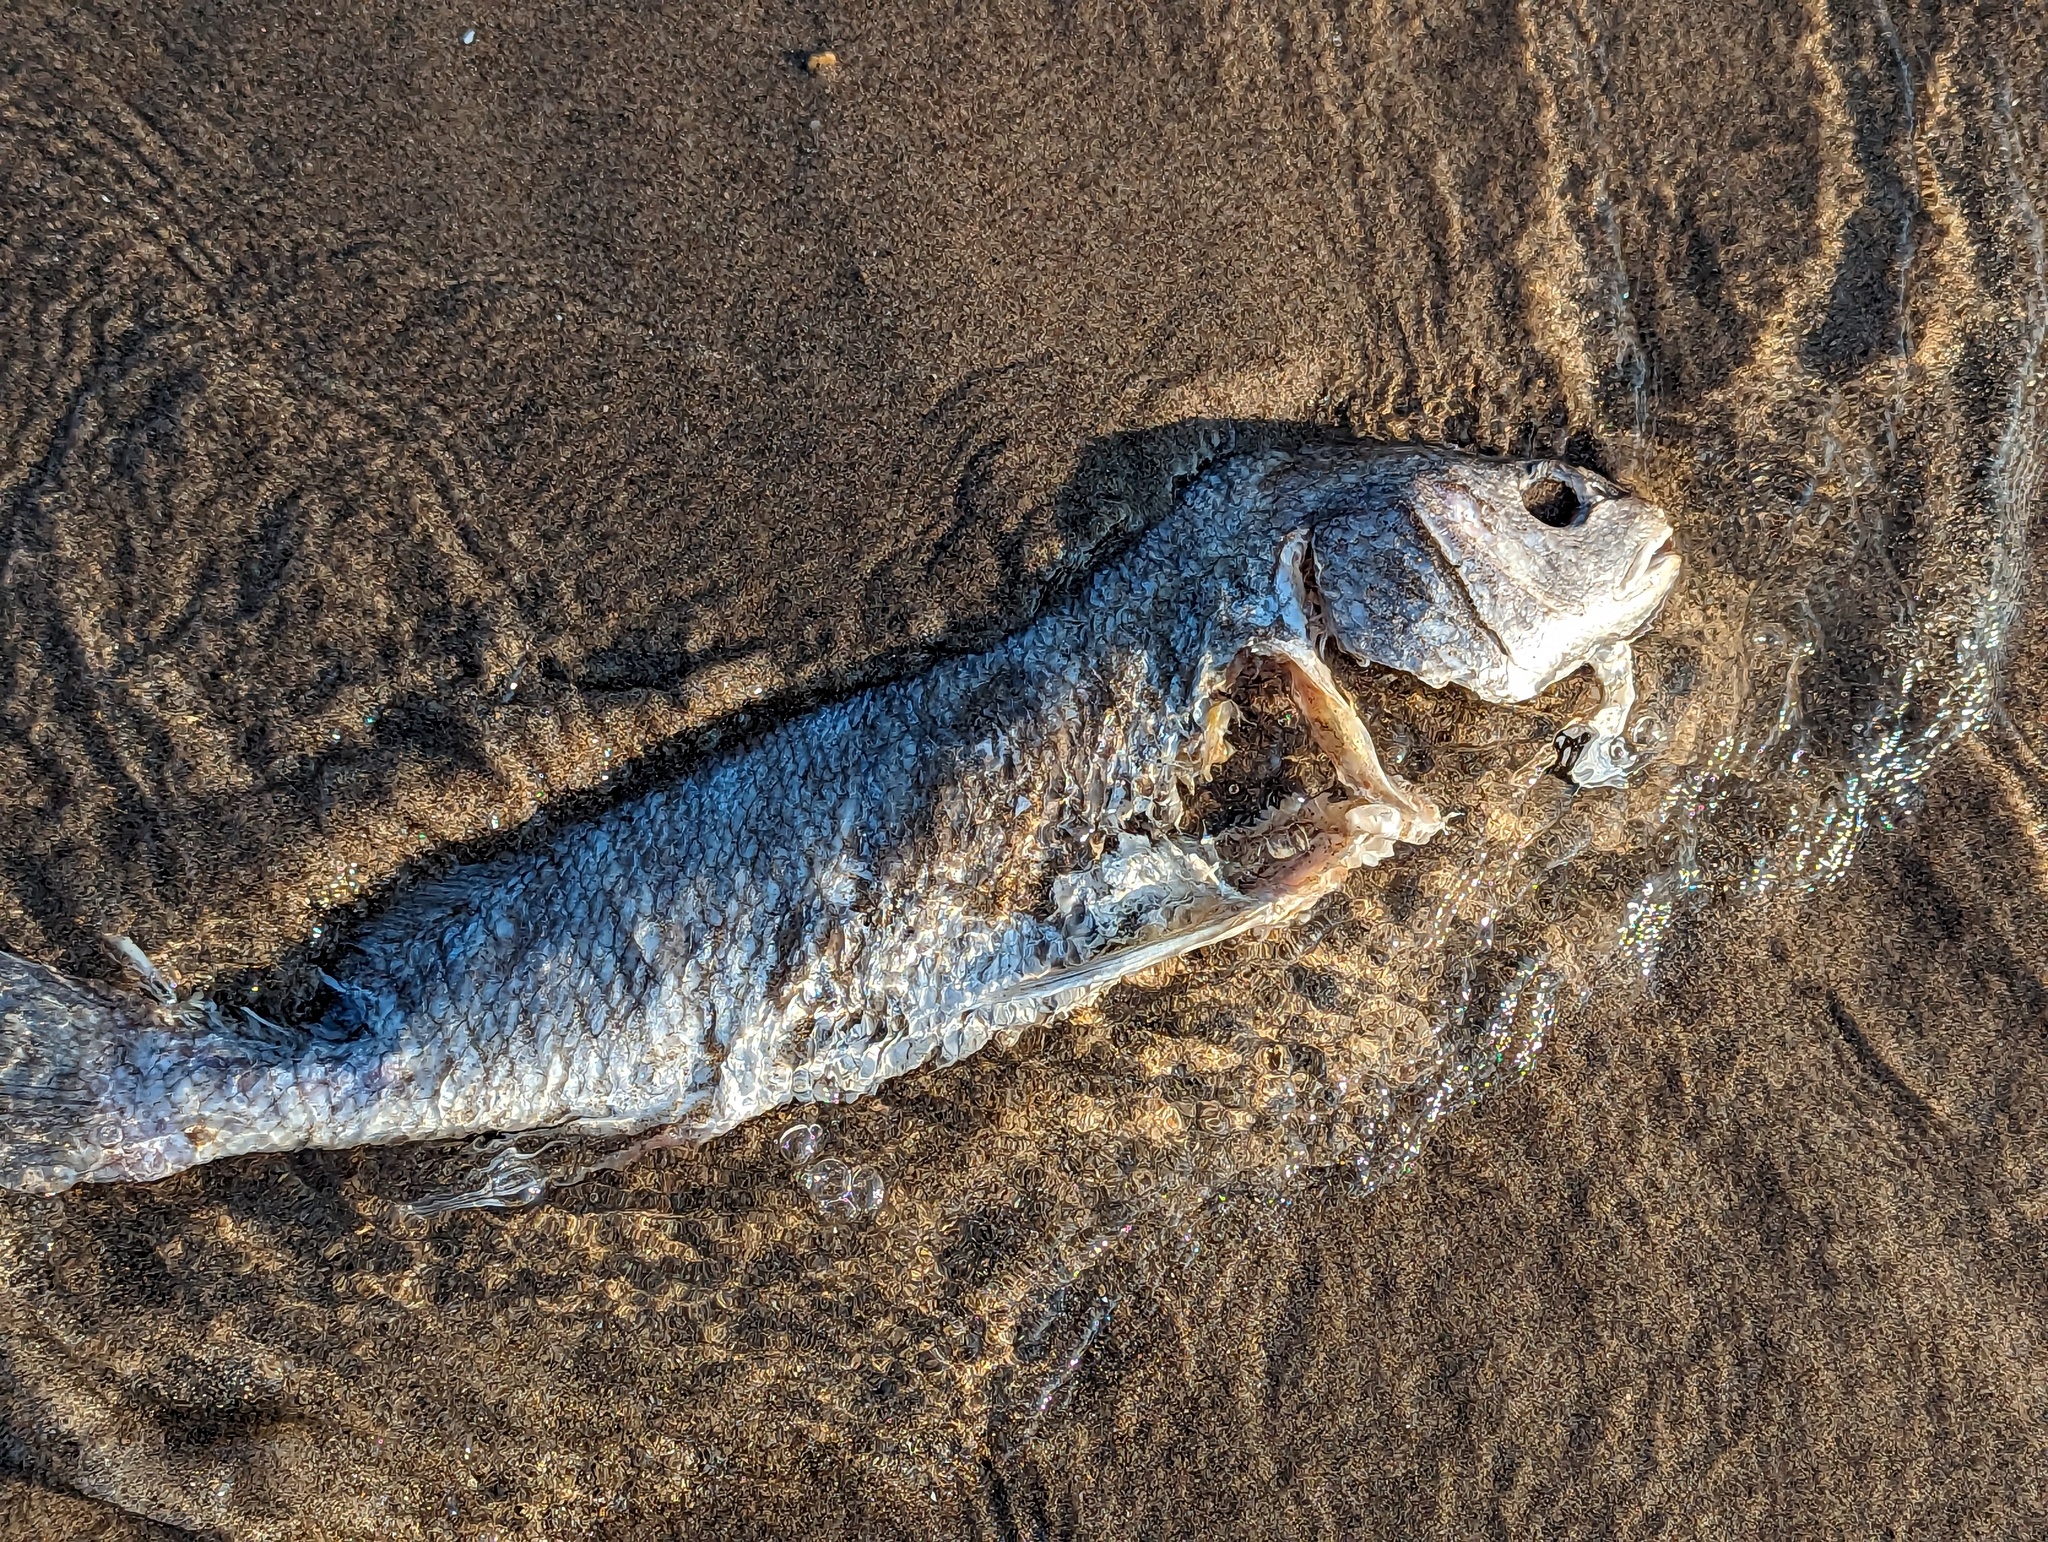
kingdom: Animalia
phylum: Chordata
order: Perciformes
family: Sciaenidae
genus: Aplodinotus
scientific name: Aplodinotus grunniens
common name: Freshwater drum
